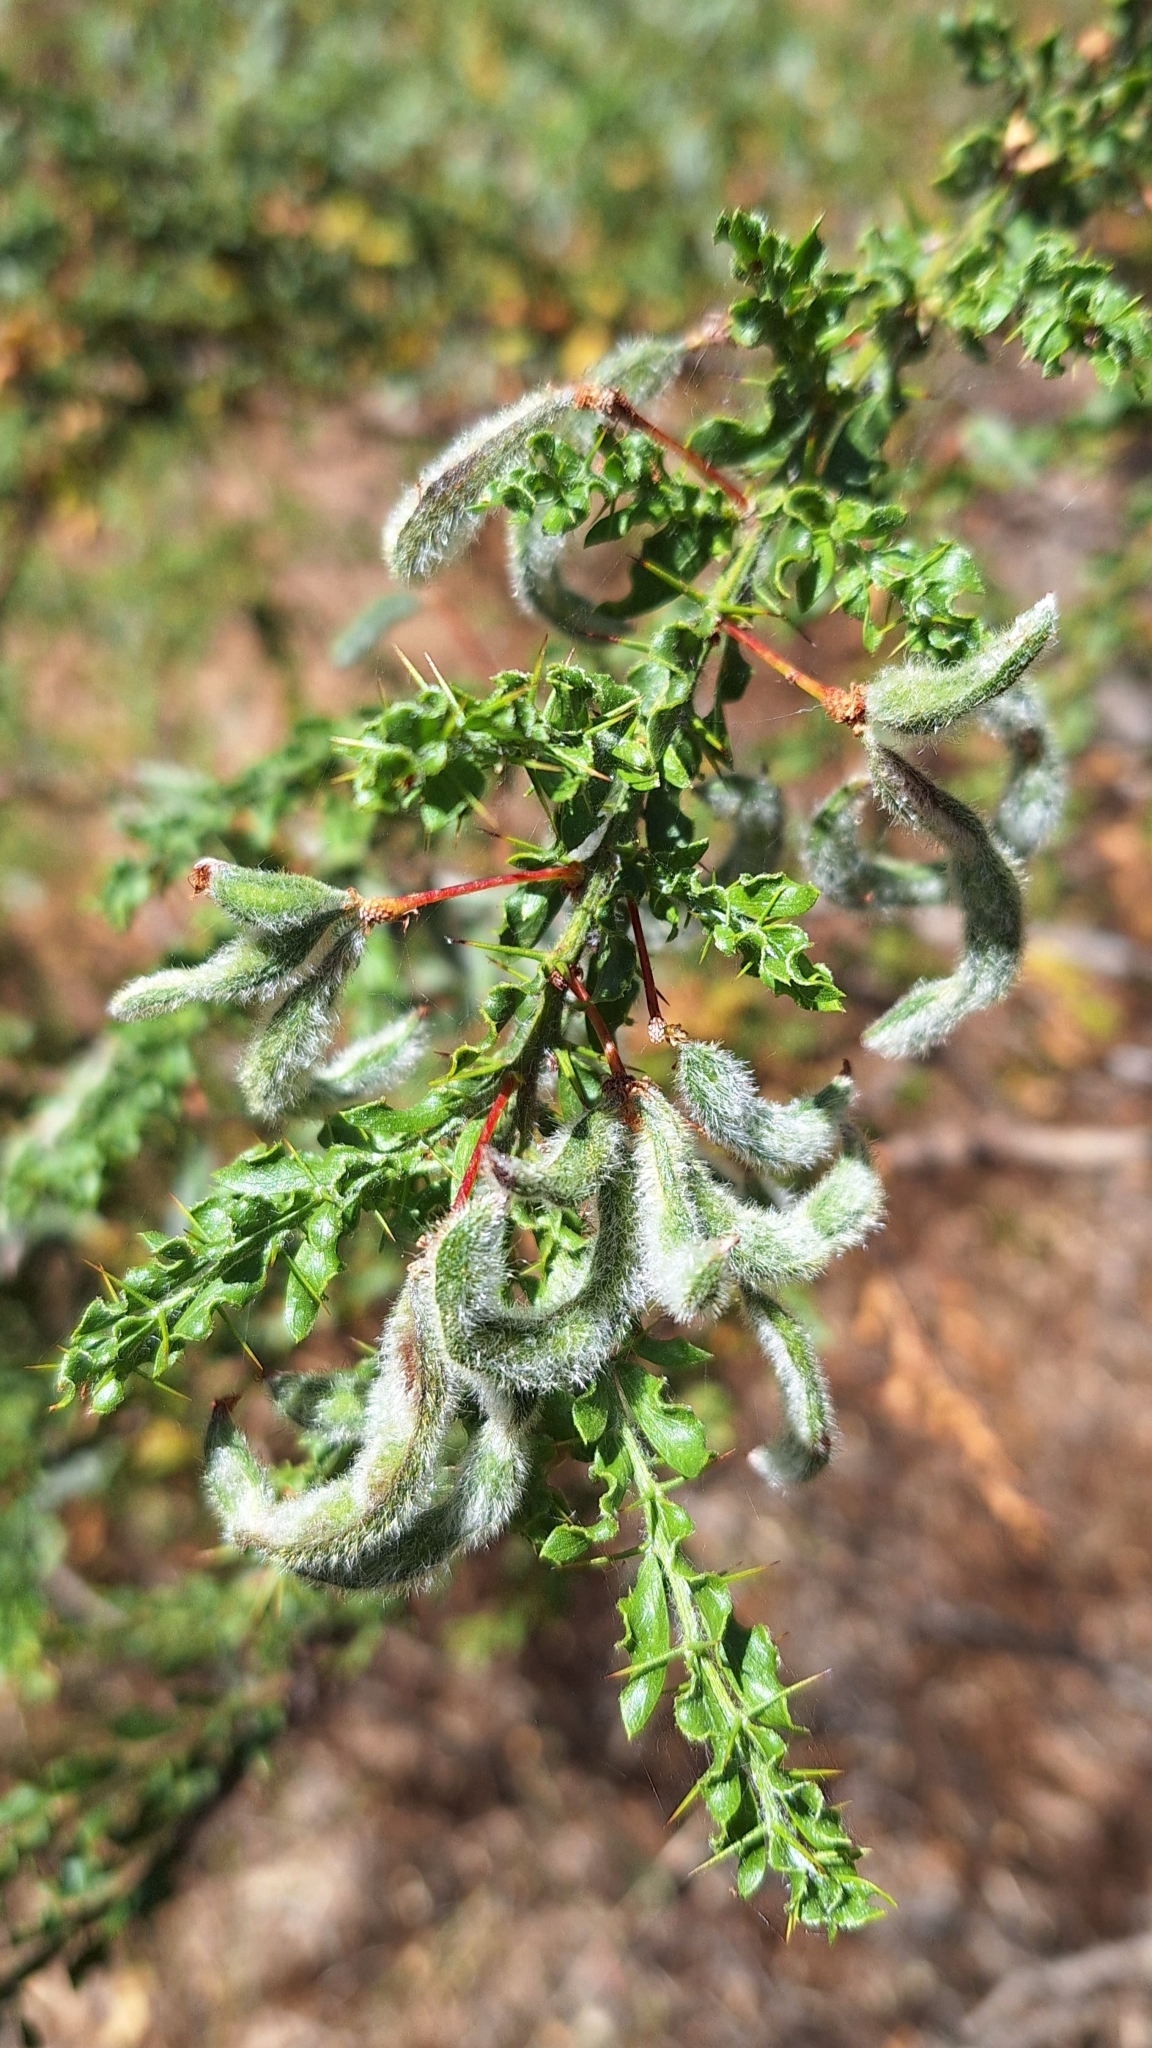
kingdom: Plantae
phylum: Tracheophyta
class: Magnoliopsida
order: Fabales
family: Fabaceae
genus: Acacia
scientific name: Acacia paradoxa
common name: Paradox acacia
